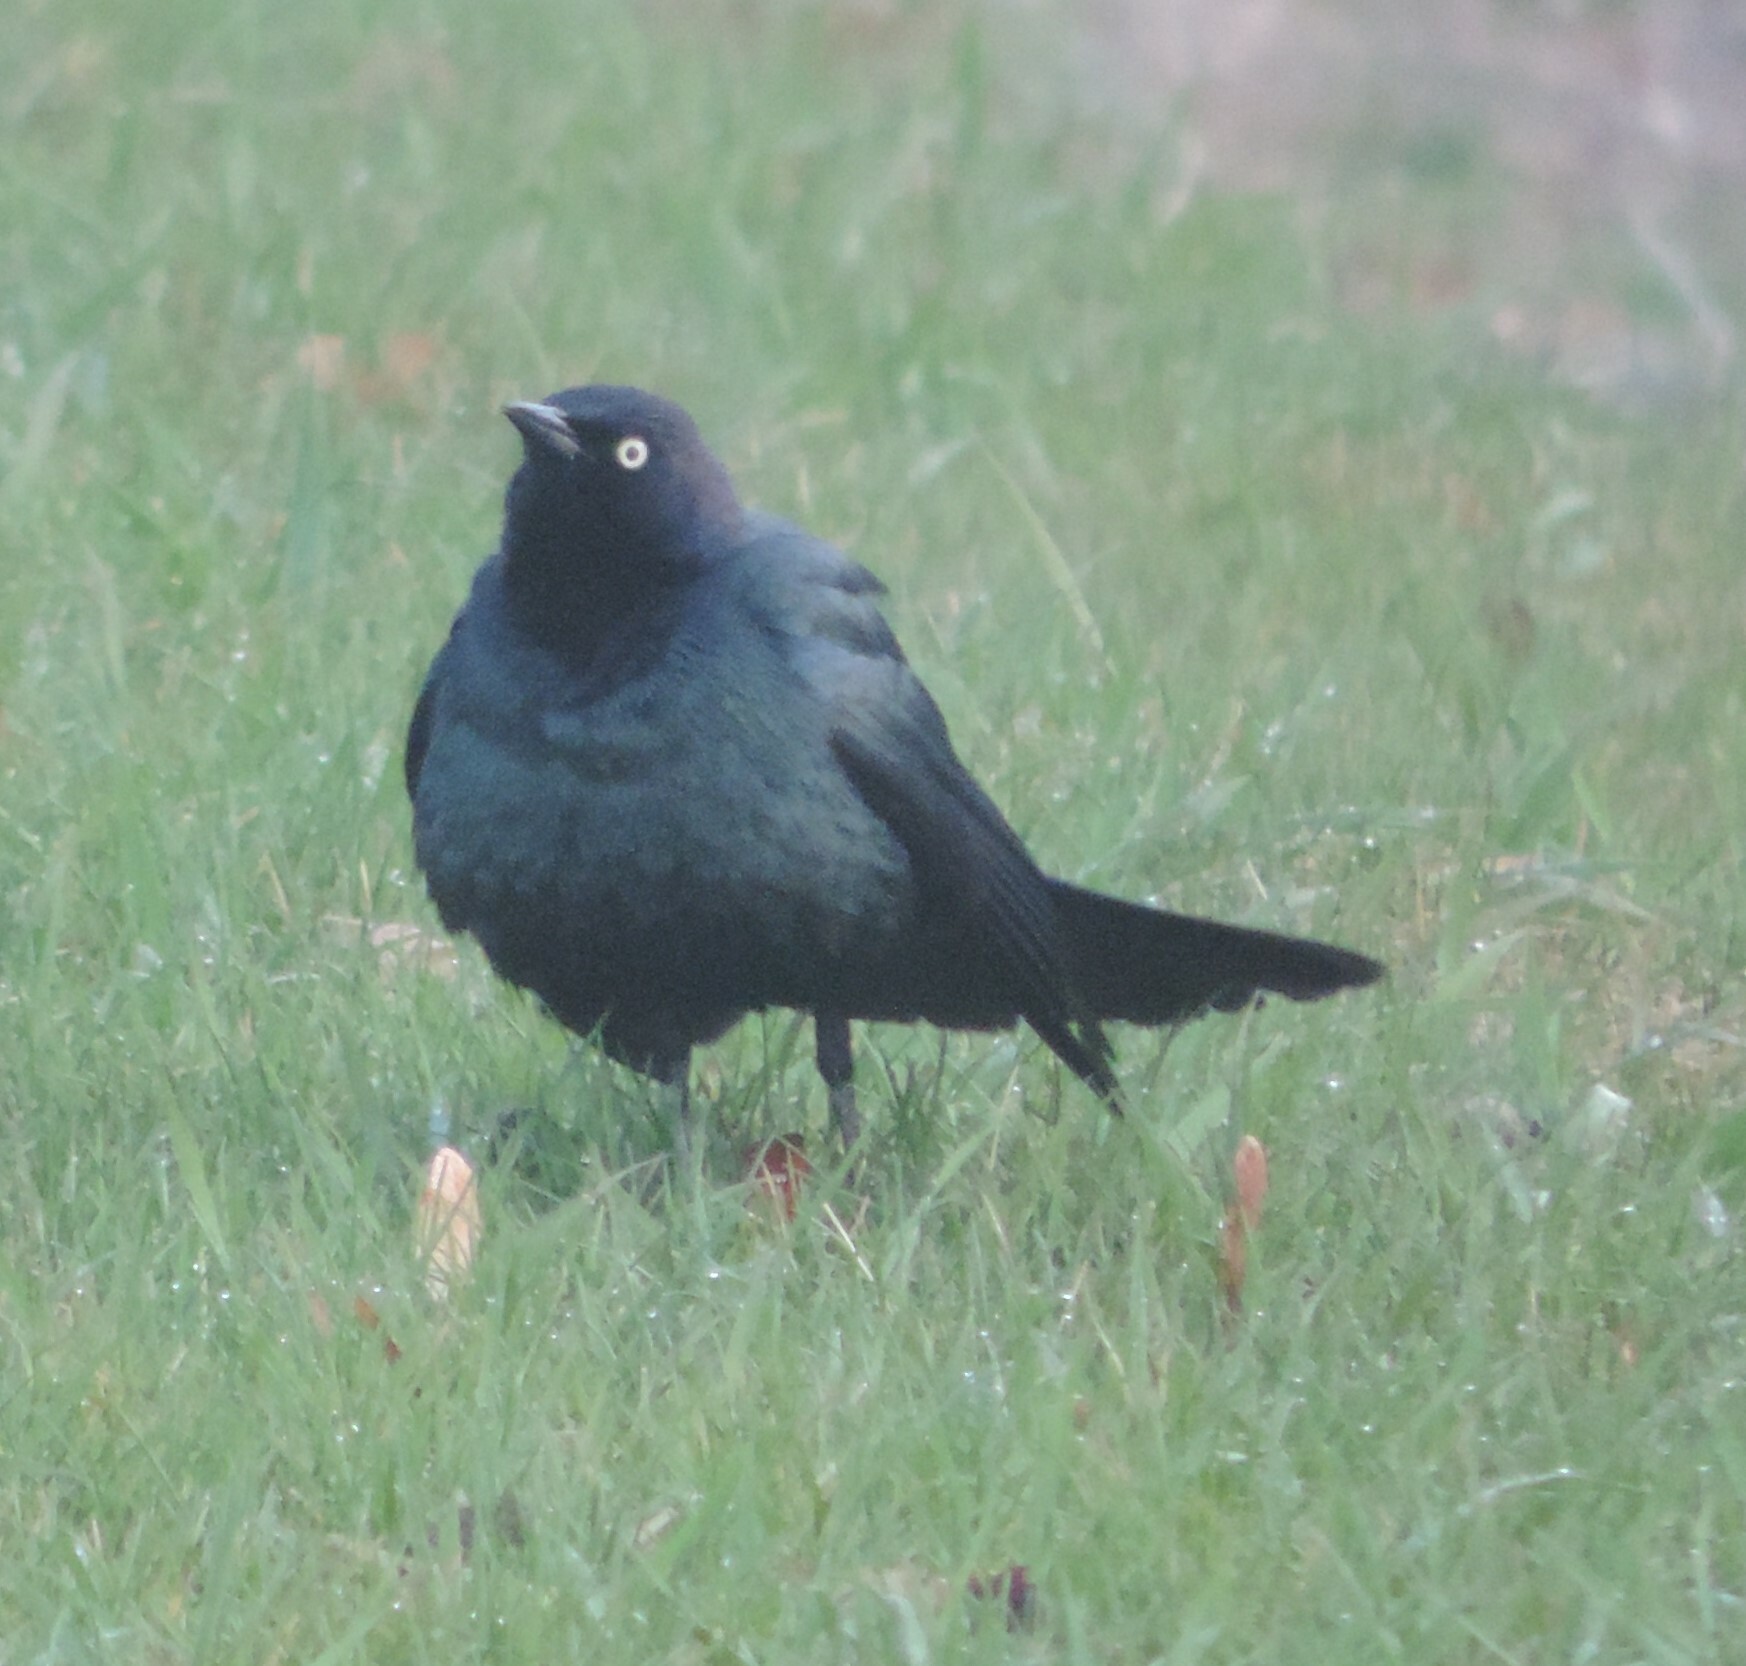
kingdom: Animalia
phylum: Chordata
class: Aves
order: Passeriformes
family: Icteridae
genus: Euphagus
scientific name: Euphagus cyanocephalus
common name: Brewer's blackbird
